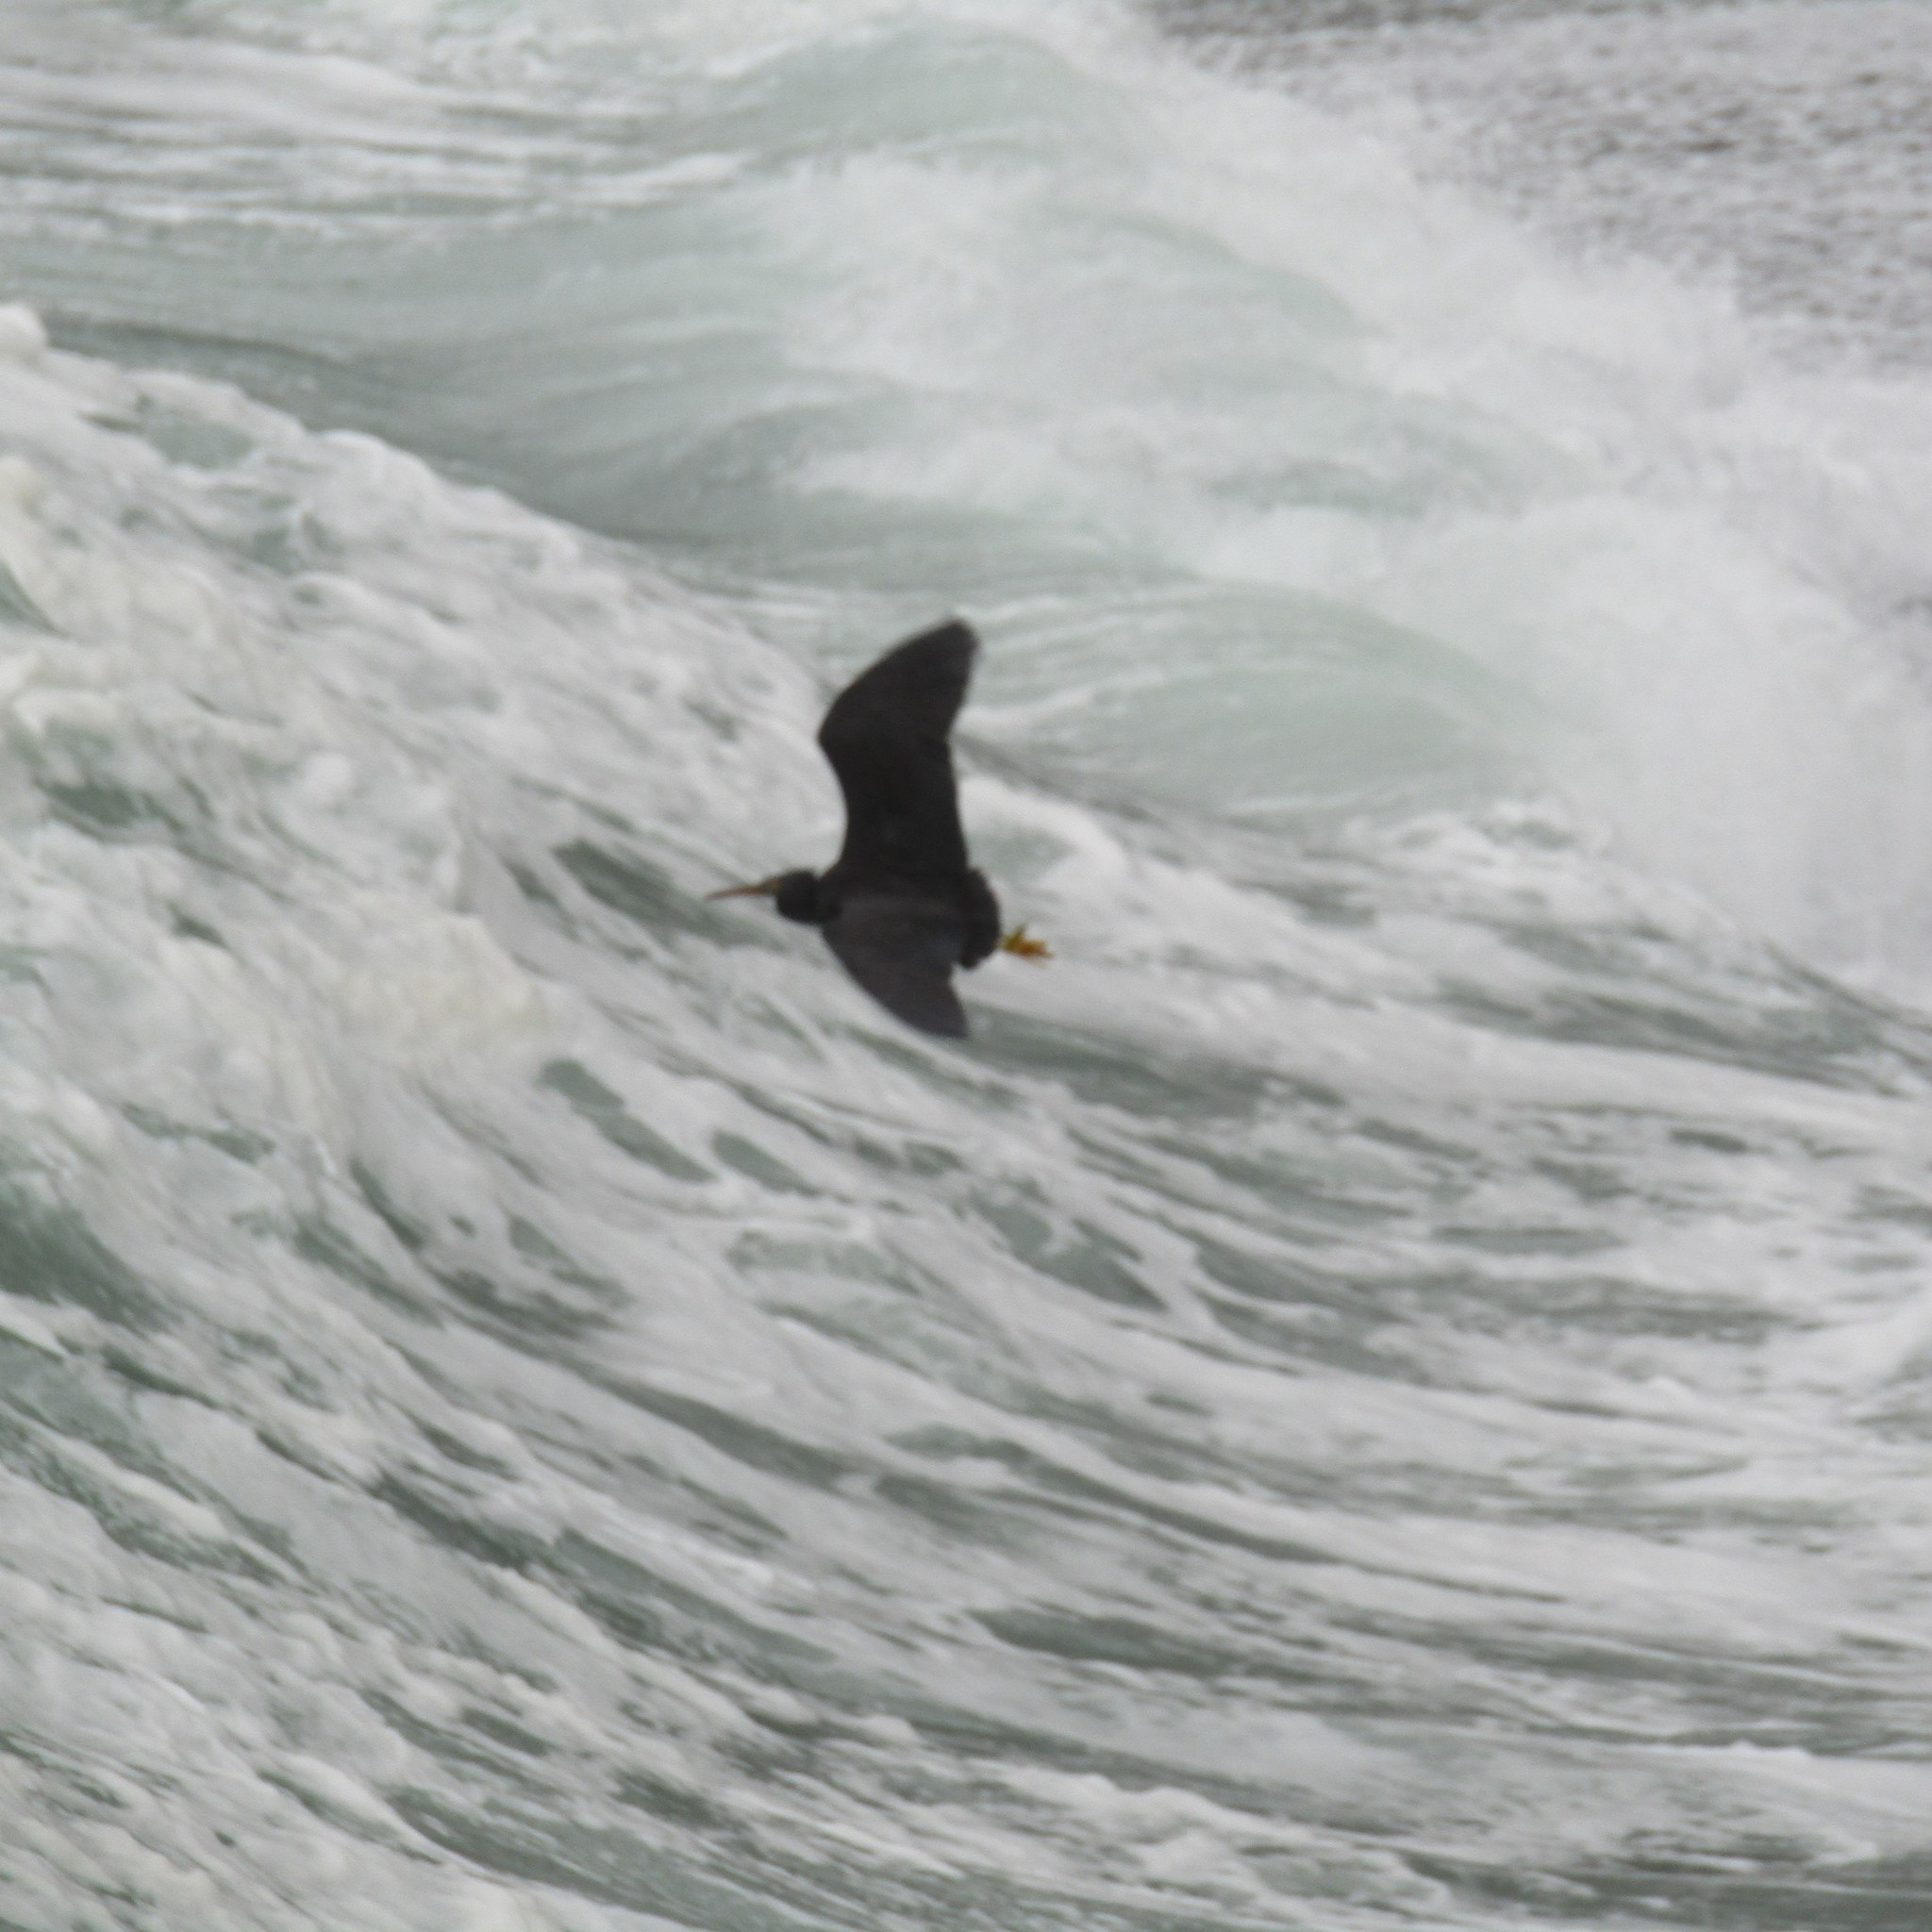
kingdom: Animalia
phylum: Chordata
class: Aves
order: Pelecaniformes
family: Ardeidae
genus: Egretta
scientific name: Egretta sacra
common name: Pacific reef heron
